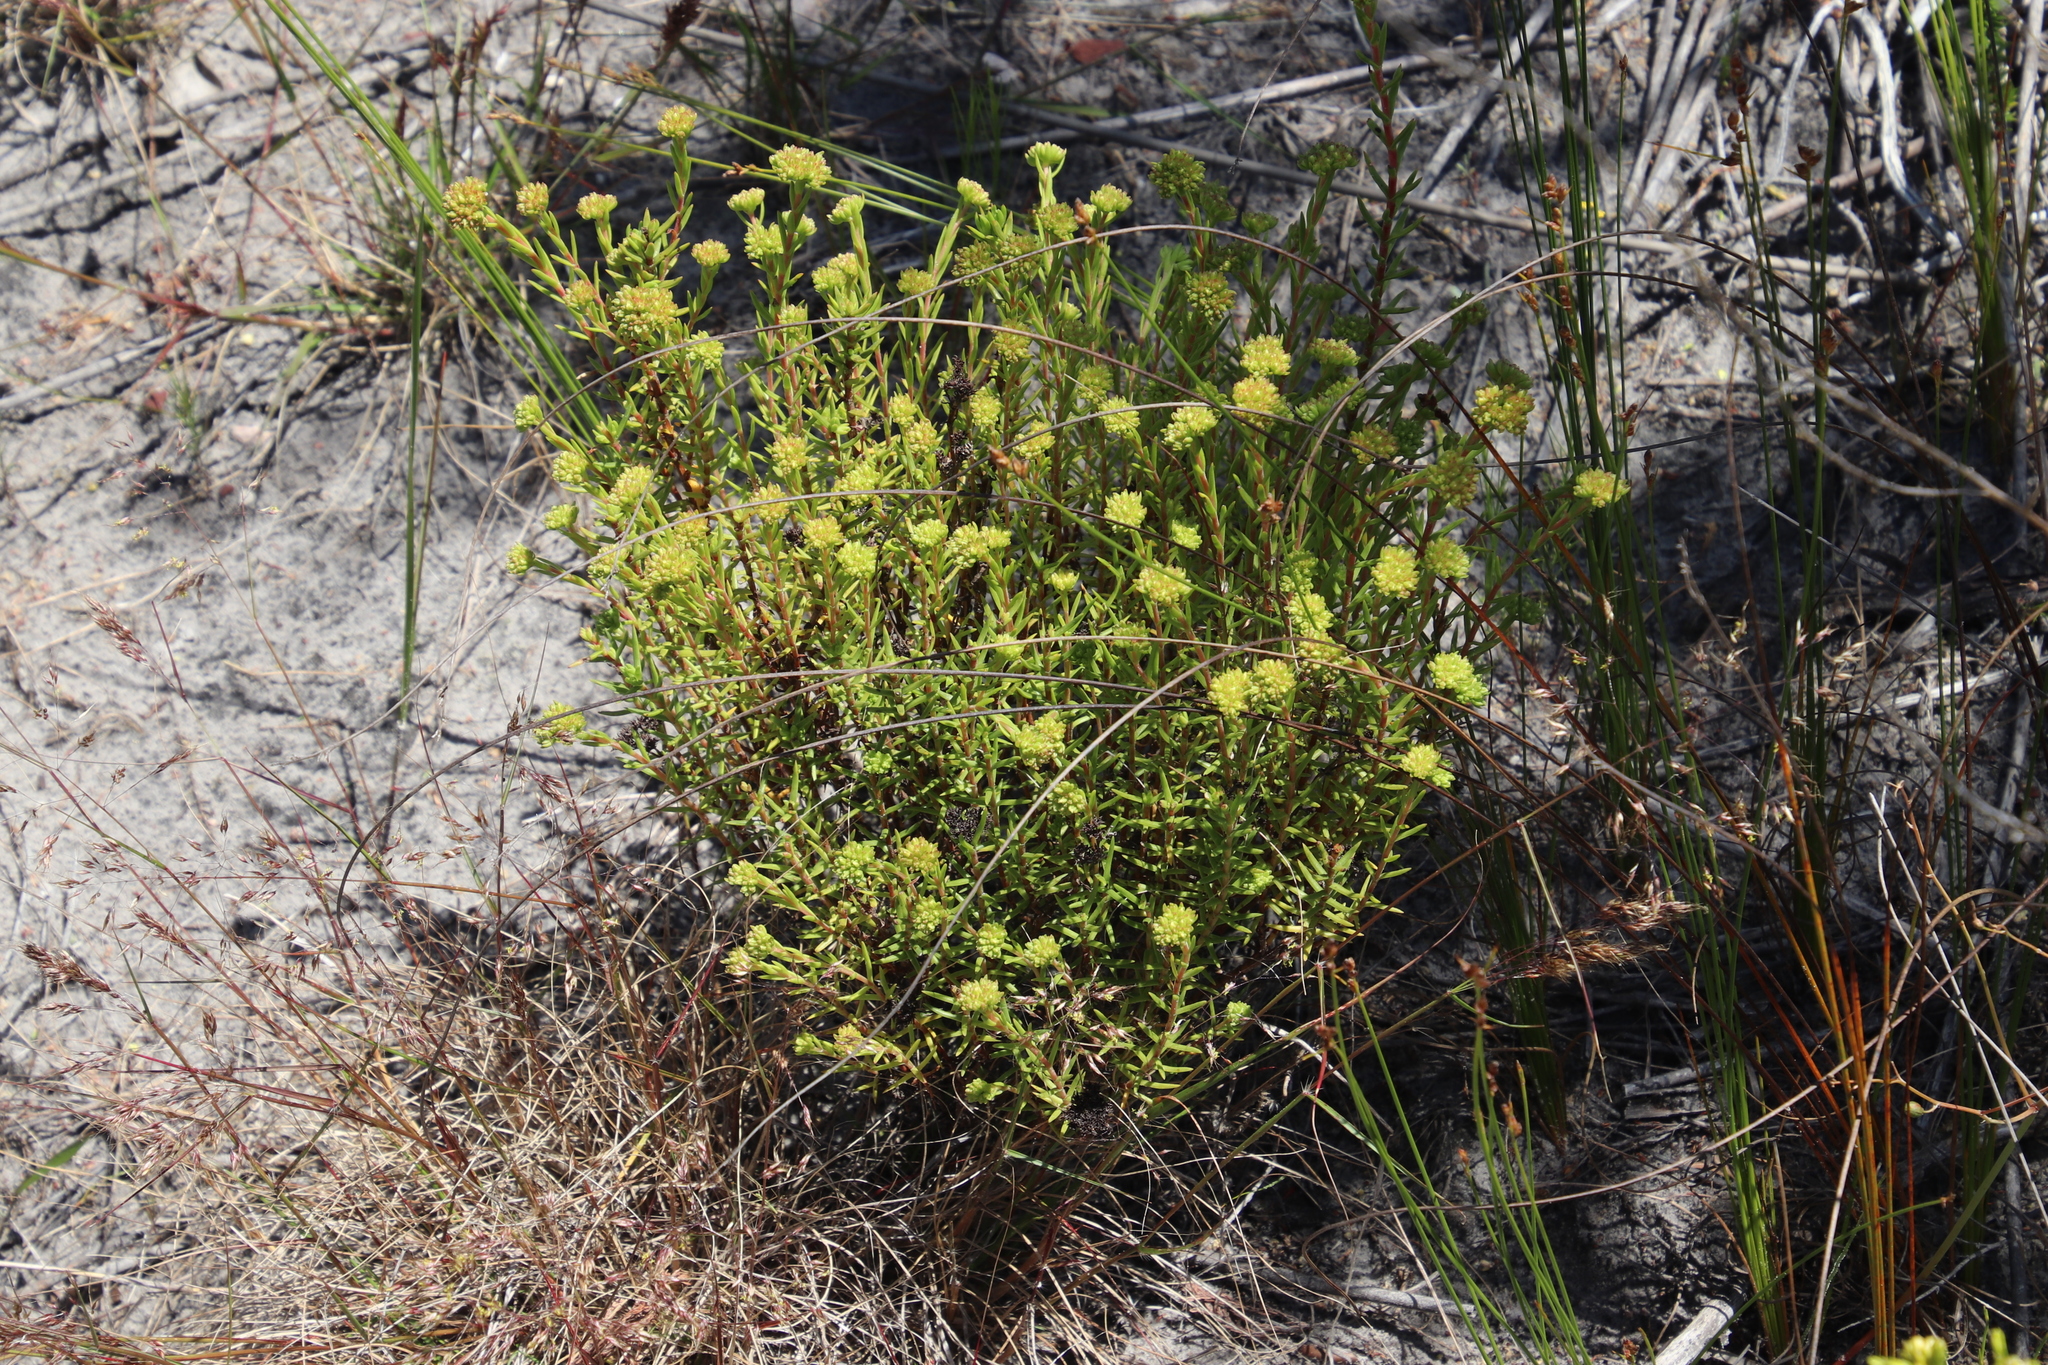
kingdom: Plantae
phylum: Tracheophyta
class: Magnoliopsida
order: Saxifragales
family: Crassulaceae
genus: Crassula
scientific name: Crassula subulata
